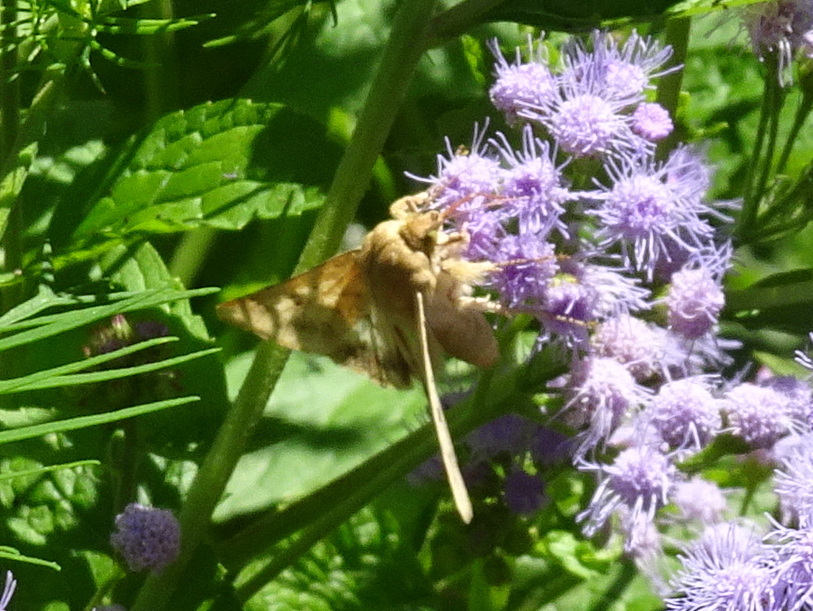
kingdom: Animalia
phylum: Arthropoda
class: Insecta
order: Lepidoptera
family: Noctuidae
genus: Helicoverpa
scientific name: Helicoverpa zea
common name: Bollworm
